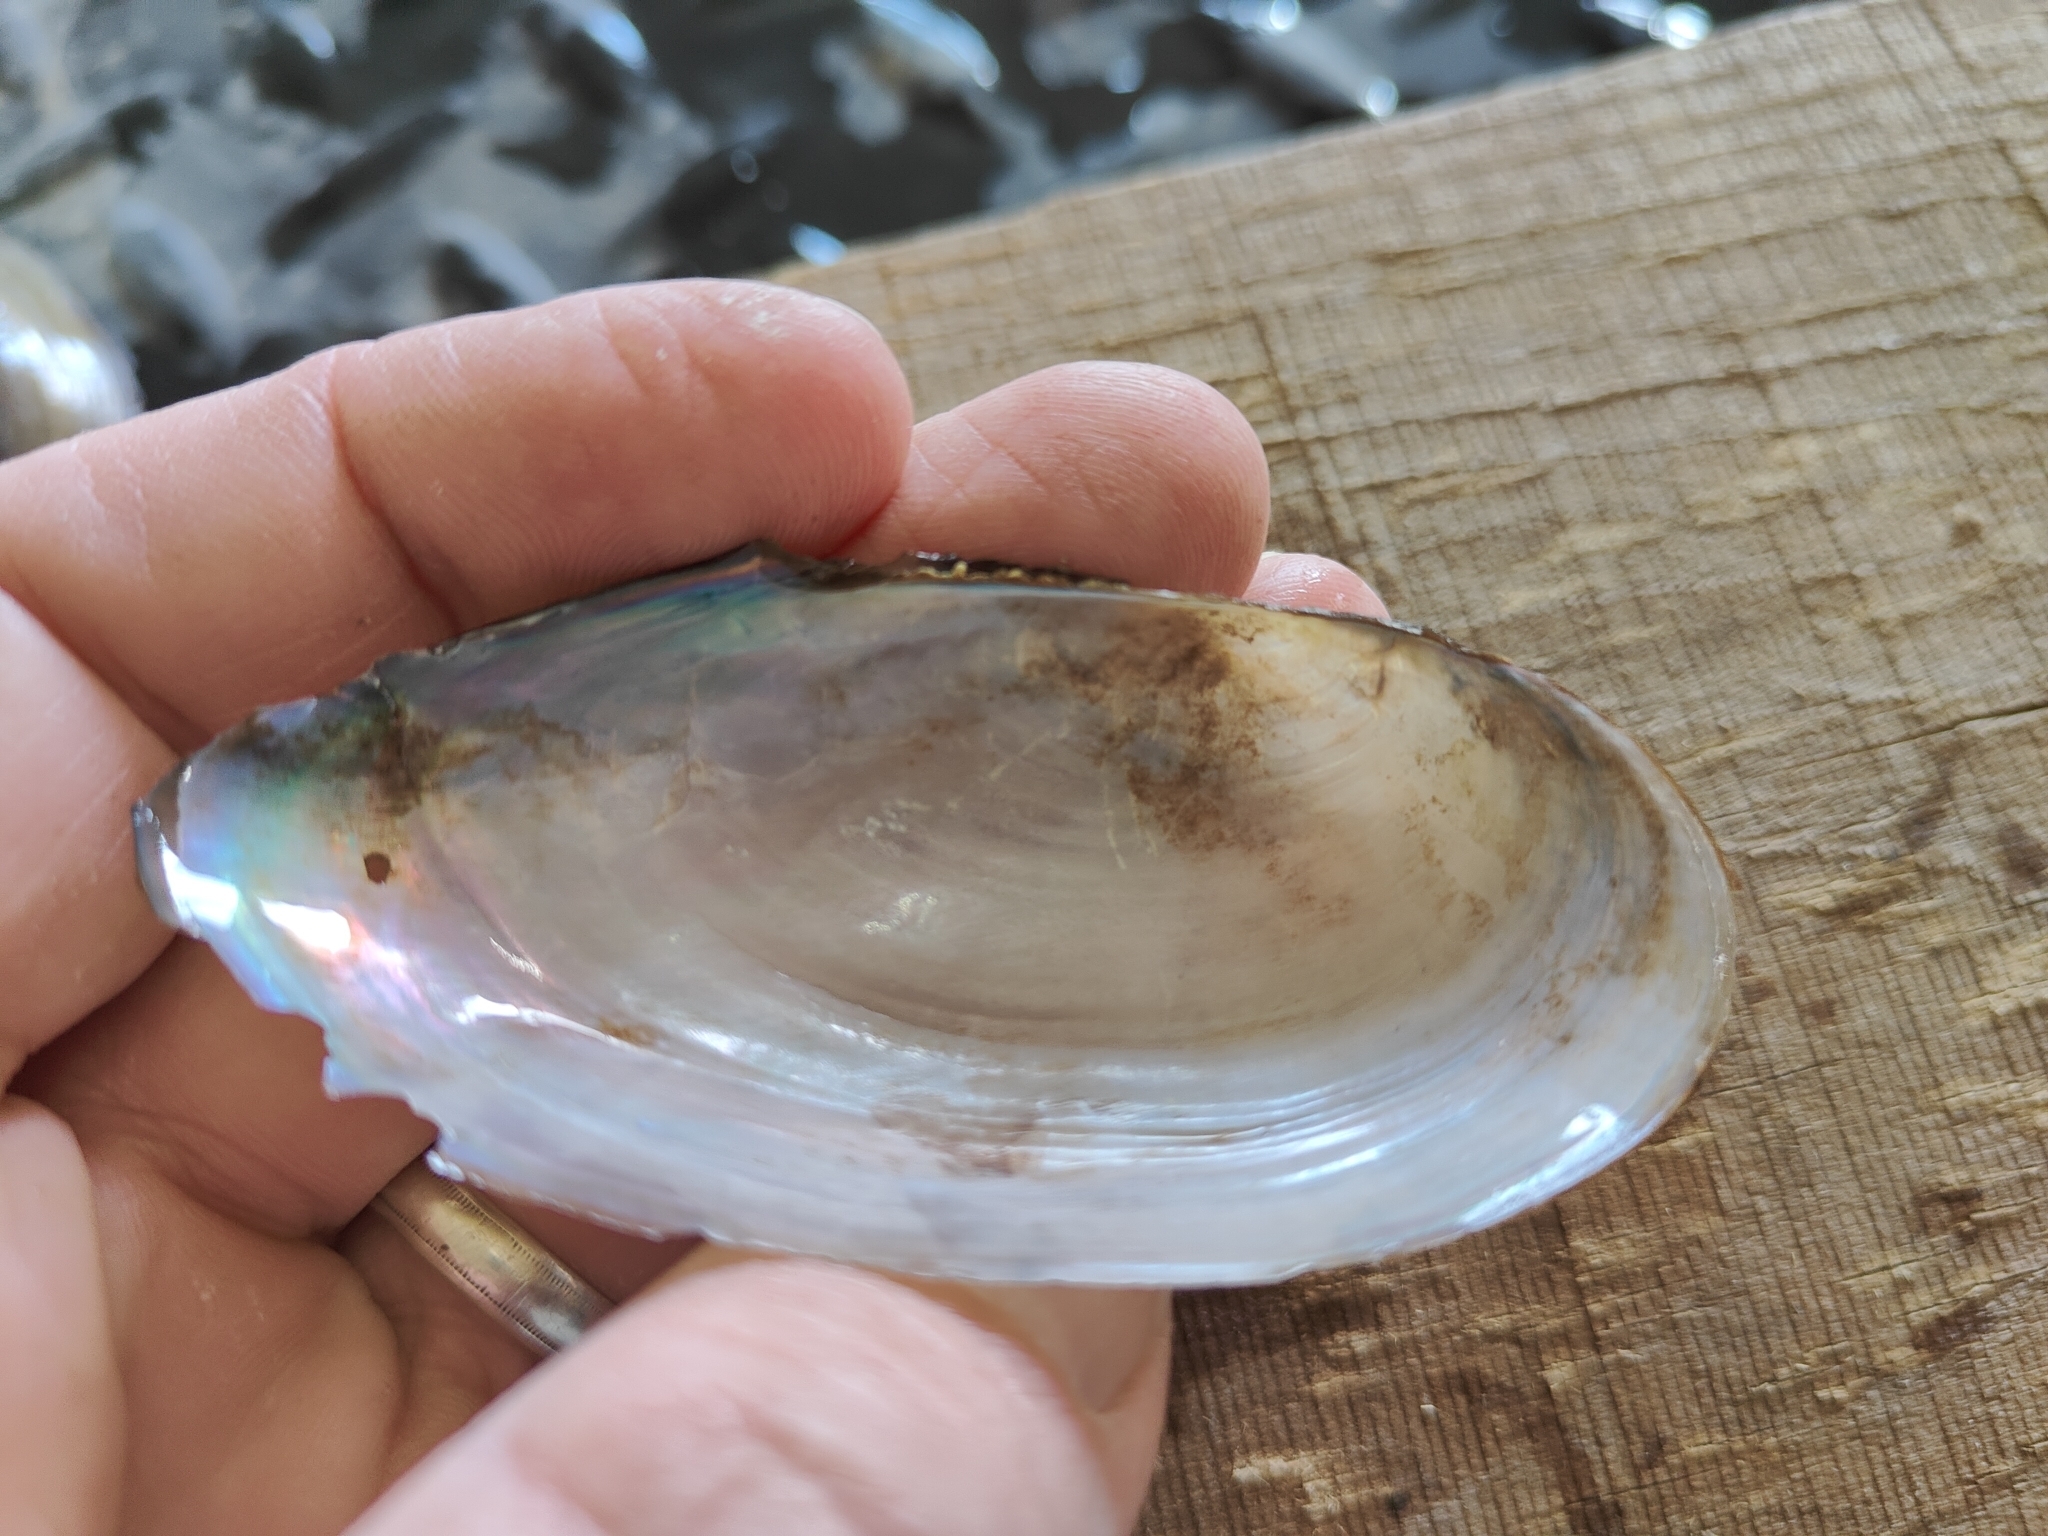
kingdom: Animalia
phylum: Mollusca
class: Bivalvia
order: Unionida
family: Unionidae
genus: Utterbackia
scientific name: Utterbackia imbecillis
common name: Paper pondshell
